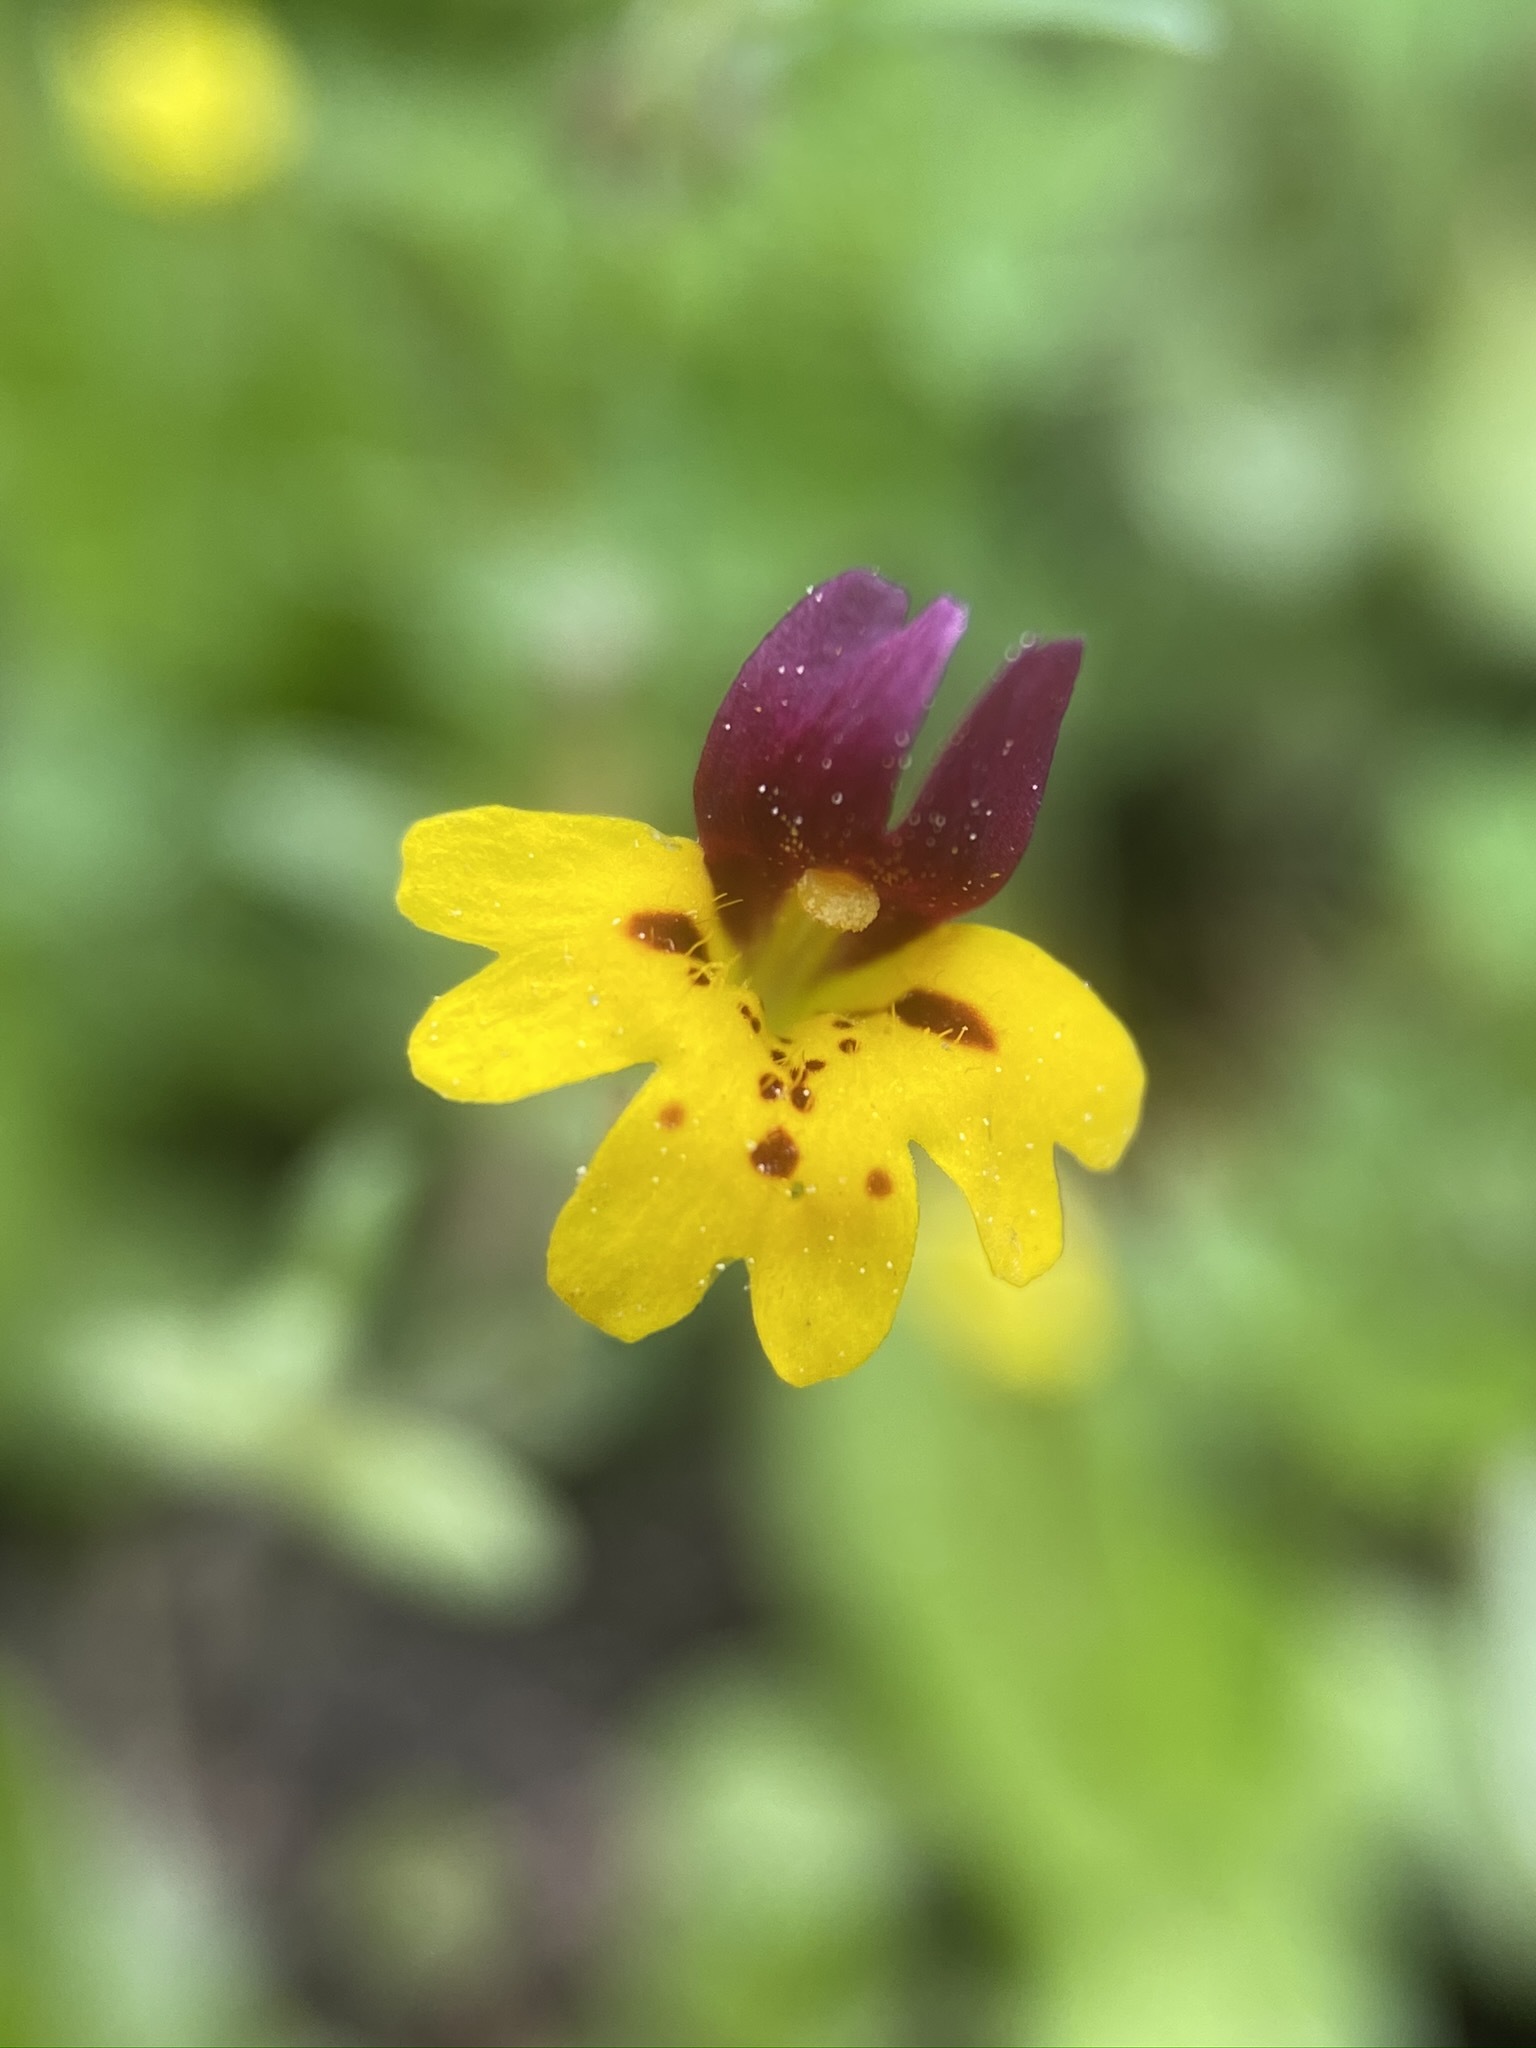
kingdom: Plantae
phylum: Tracheophyta
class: Magnoliopsida
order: Lamiales
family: Phrymaceae
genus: Erythranthe
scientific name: Erythranthe barbata
